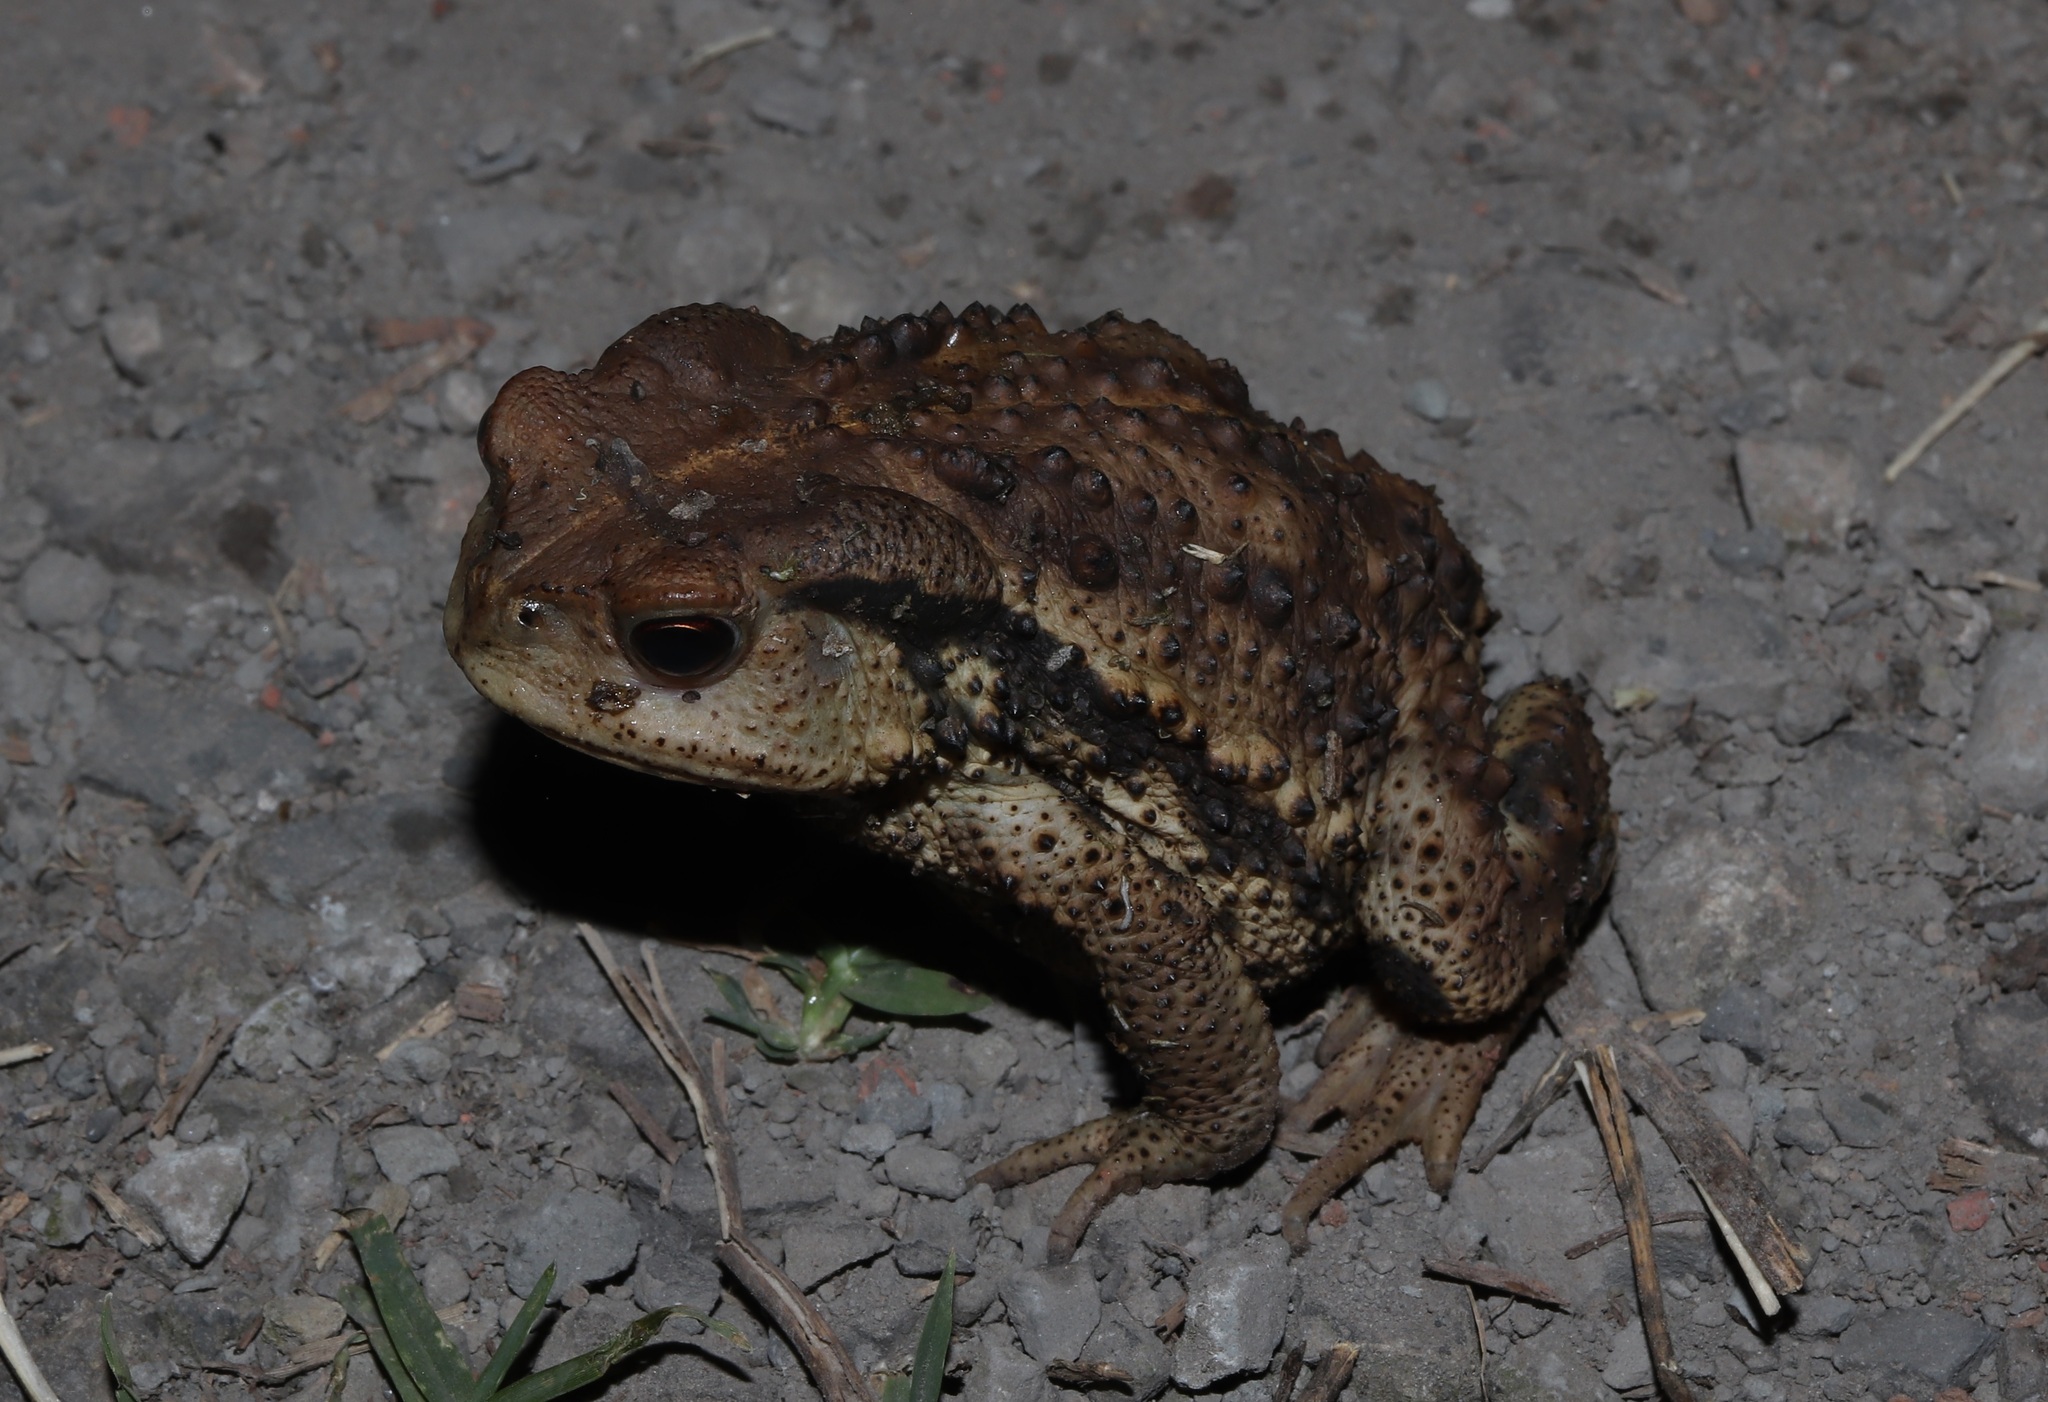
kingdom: Animalia
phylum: Chordata
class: Amphibia
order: Anura
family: Bufonidae
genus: Bufo
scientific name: Bufo gargarizans
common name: Asiatic toad
